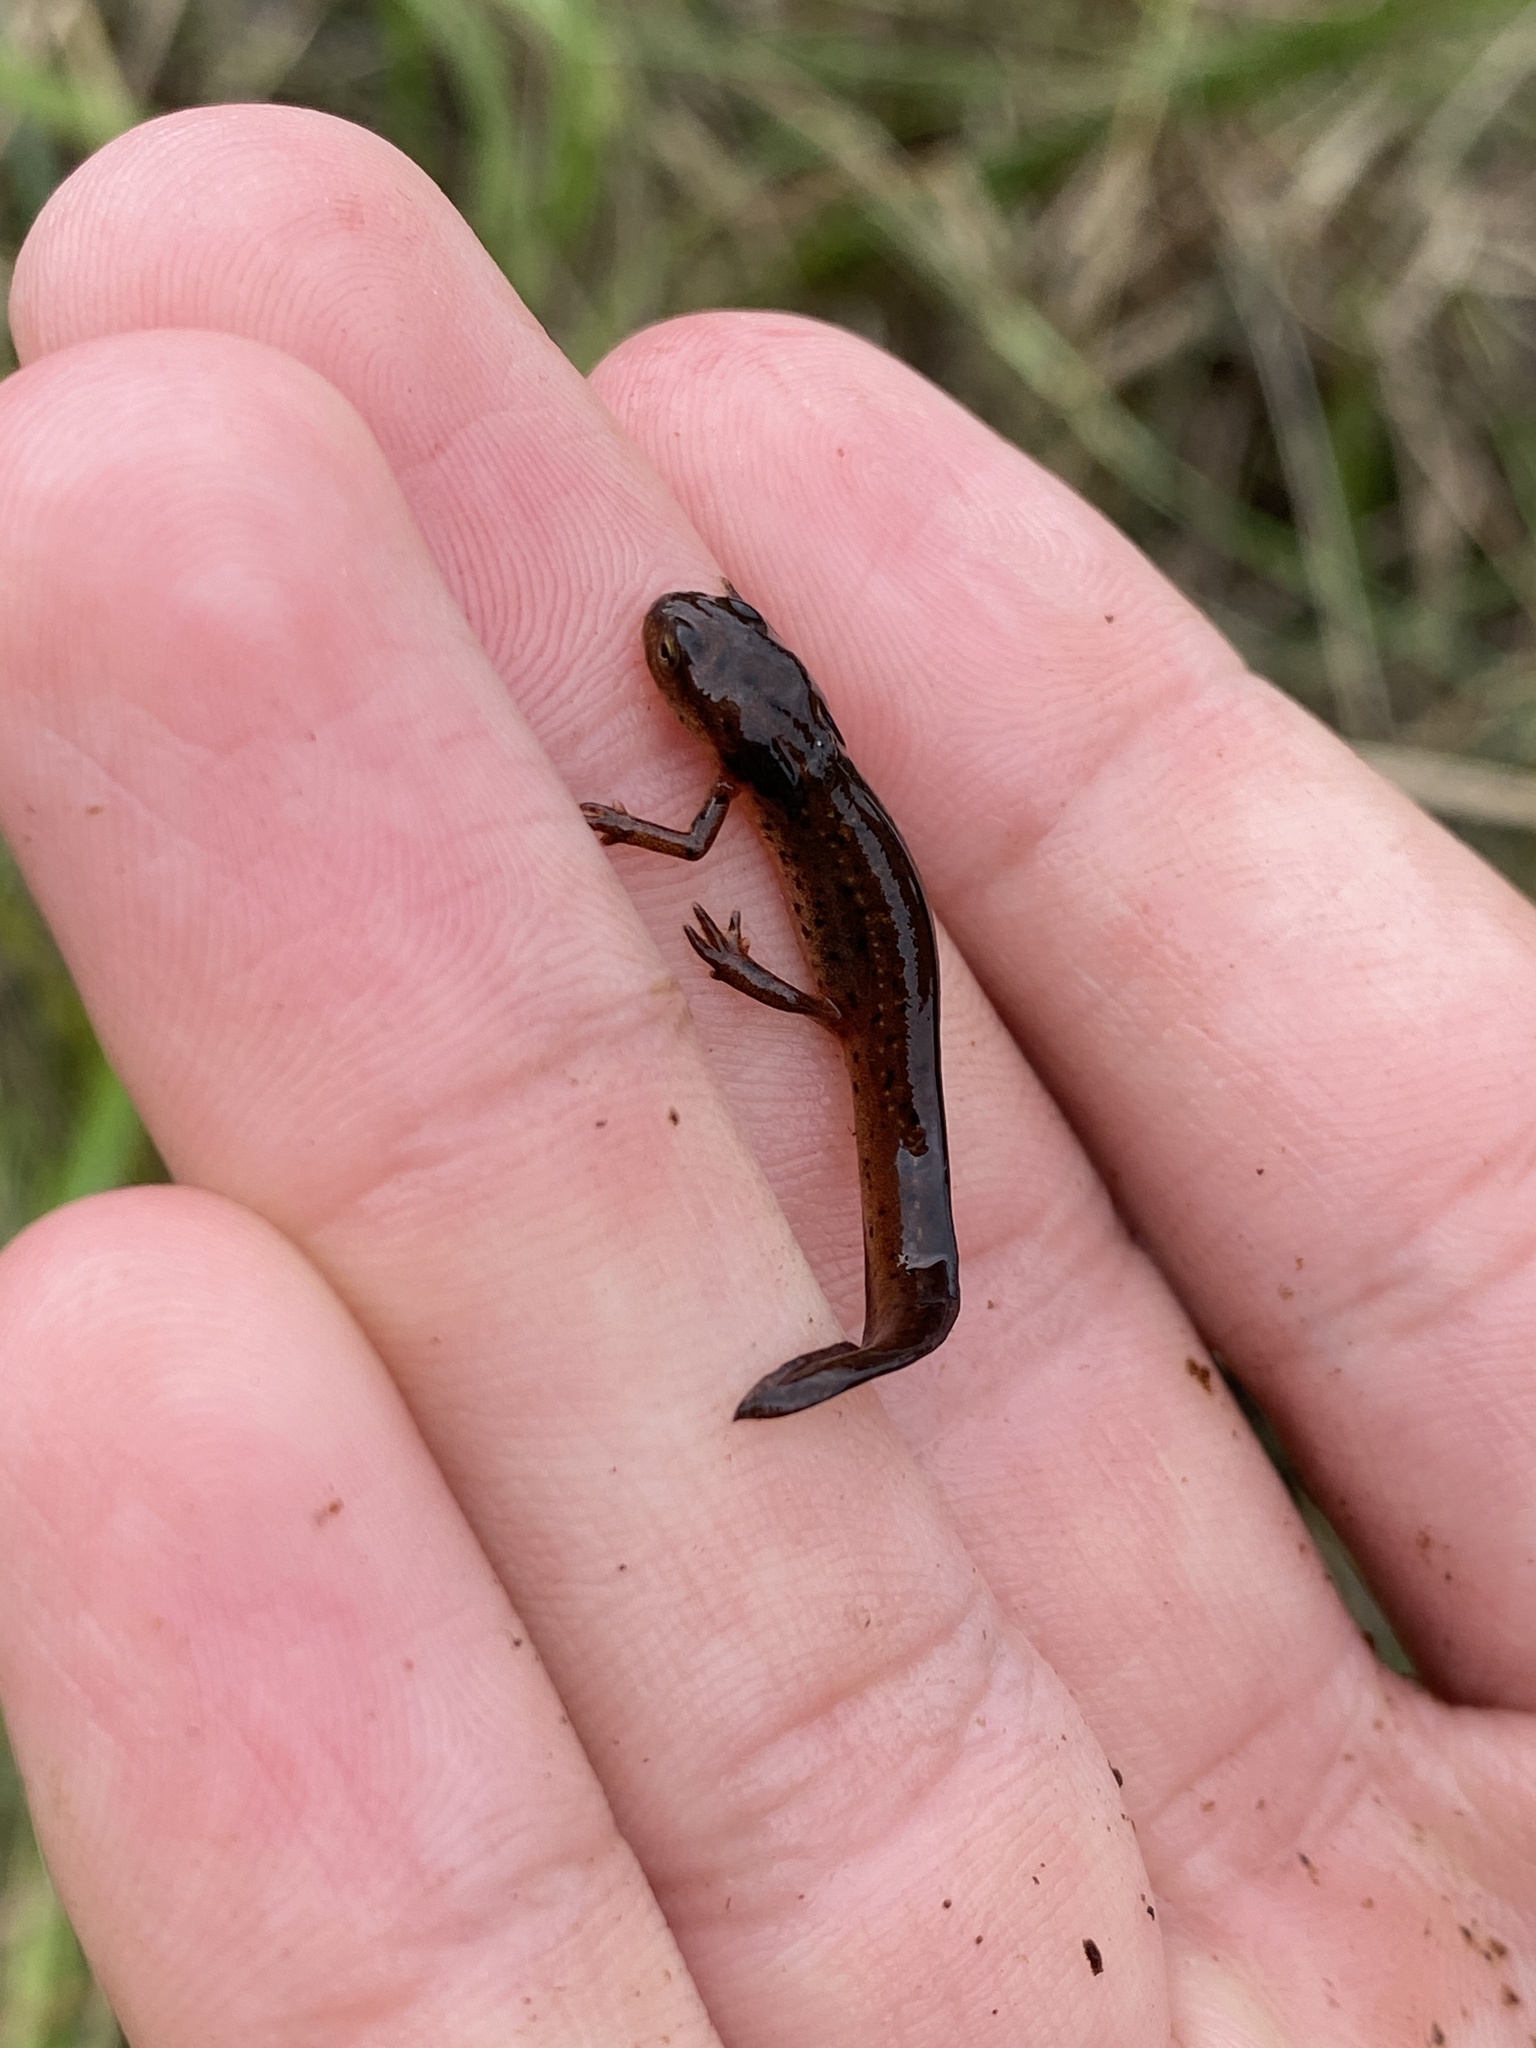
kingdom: Animalia
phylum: Chordata
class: Amphibia
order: Caudata
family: Salamandridae
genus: Notophthalmus
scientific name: Notophthalmus viridescens
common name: Eastern newt
